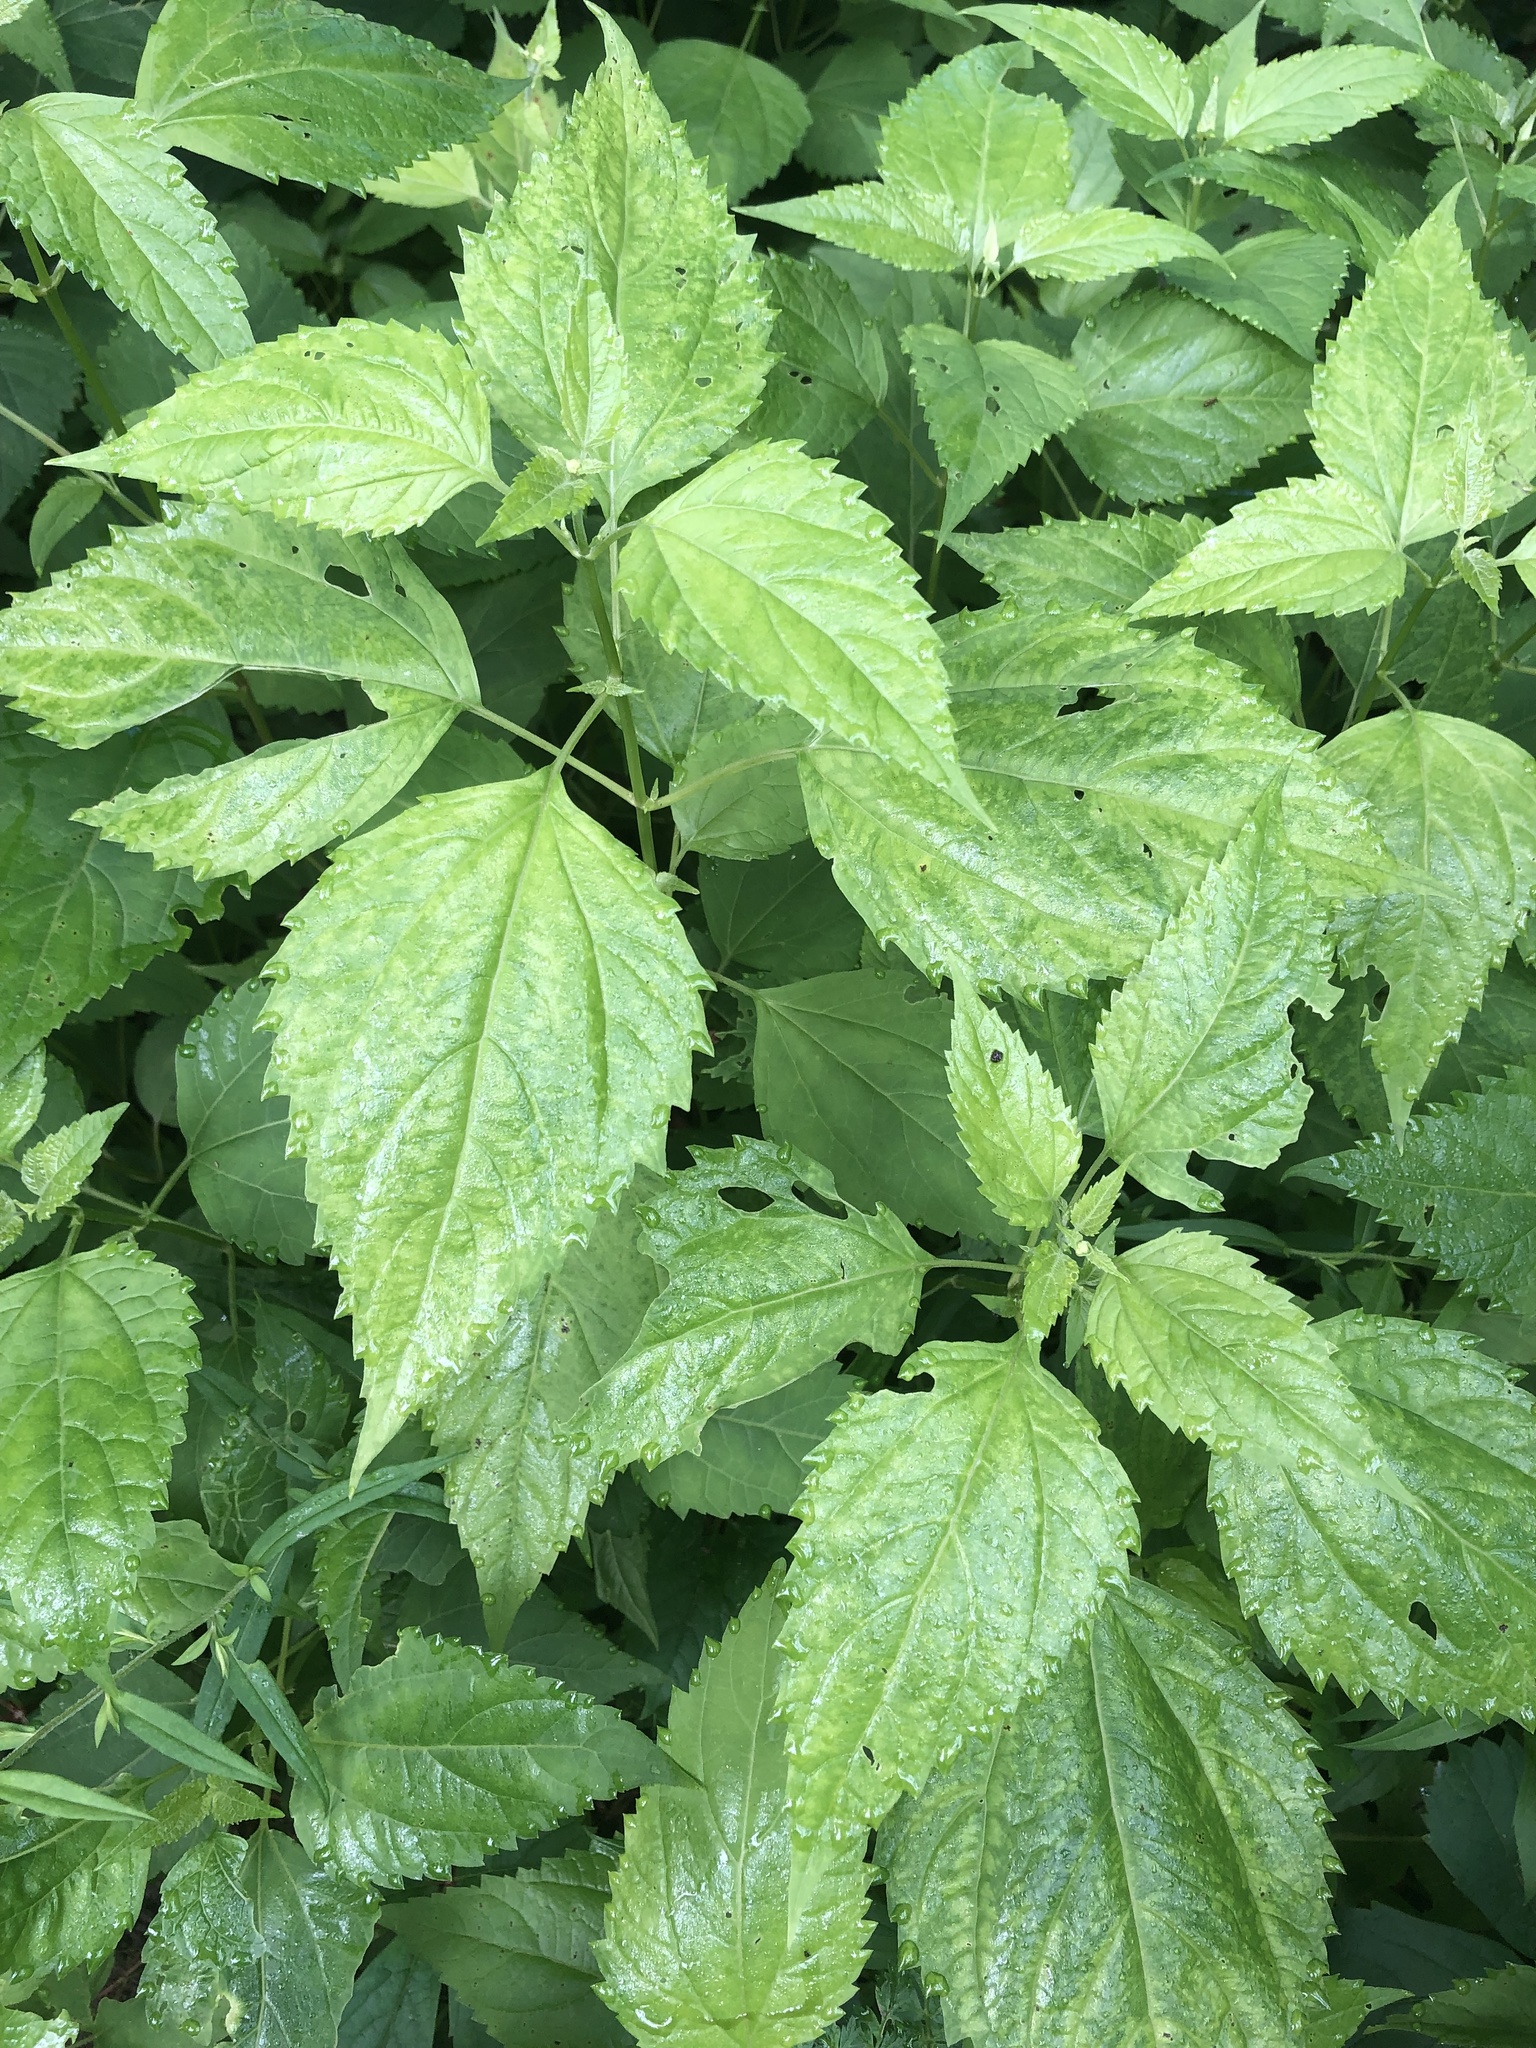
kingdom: Plantae
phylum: Tracheophyta
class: Magnoliopsida
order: Asterales
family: Asteraceae
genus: Ageratina
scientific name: Ageratina altissima
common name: White snakeroot
